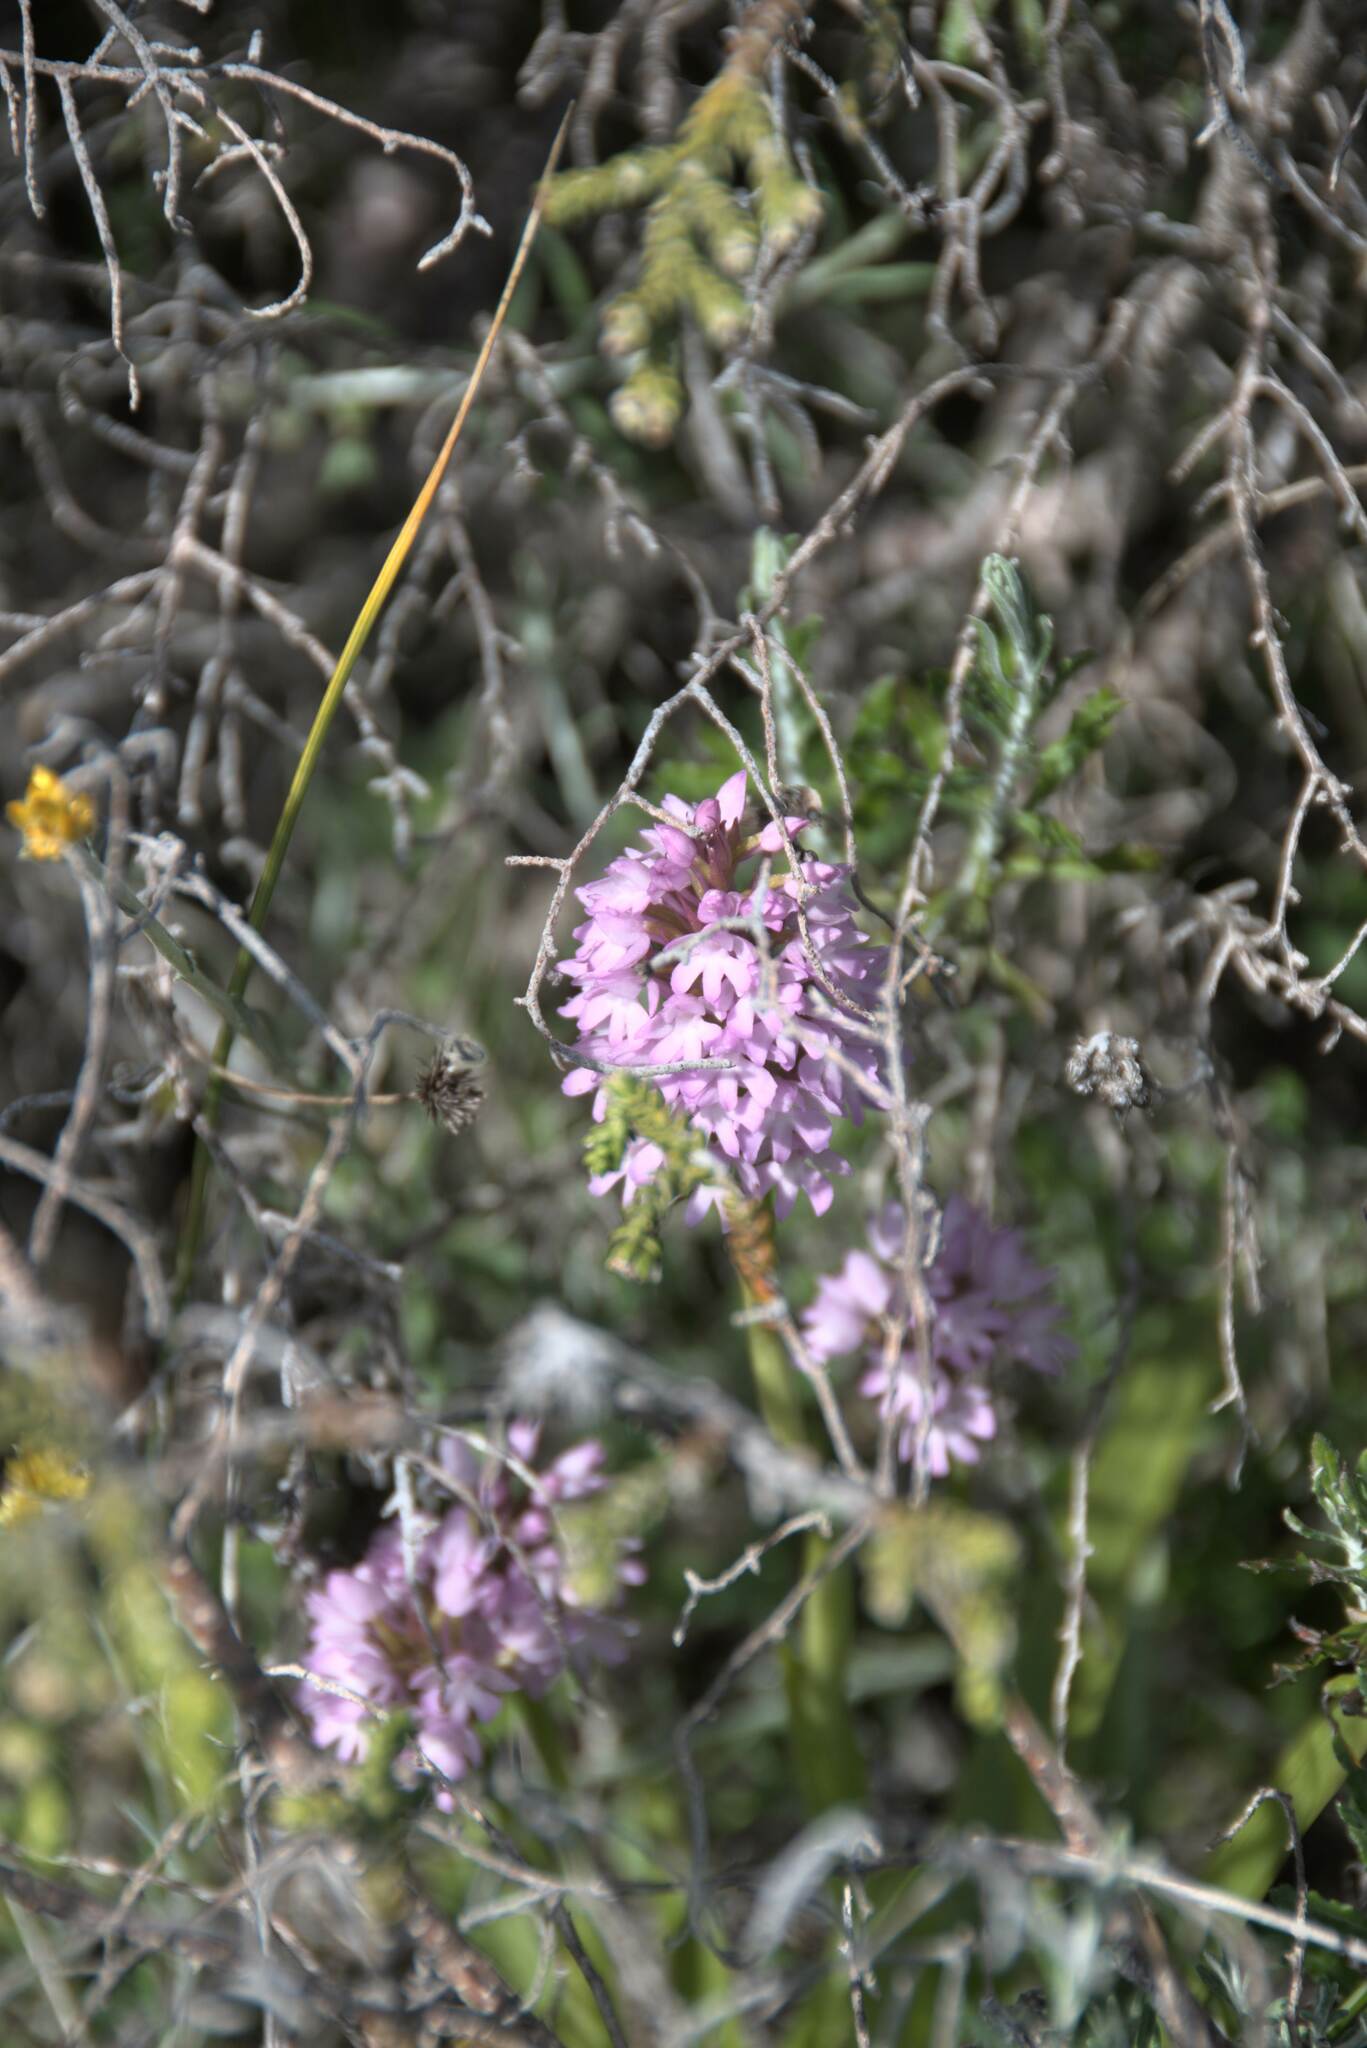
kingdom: Plantae
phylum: Tracheophyta
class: Liliopsida
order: Asparagales
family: Orchidaceae
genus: Anacamptis
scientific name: Anacamptis pyramidalis
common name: Pyramidal orchid
